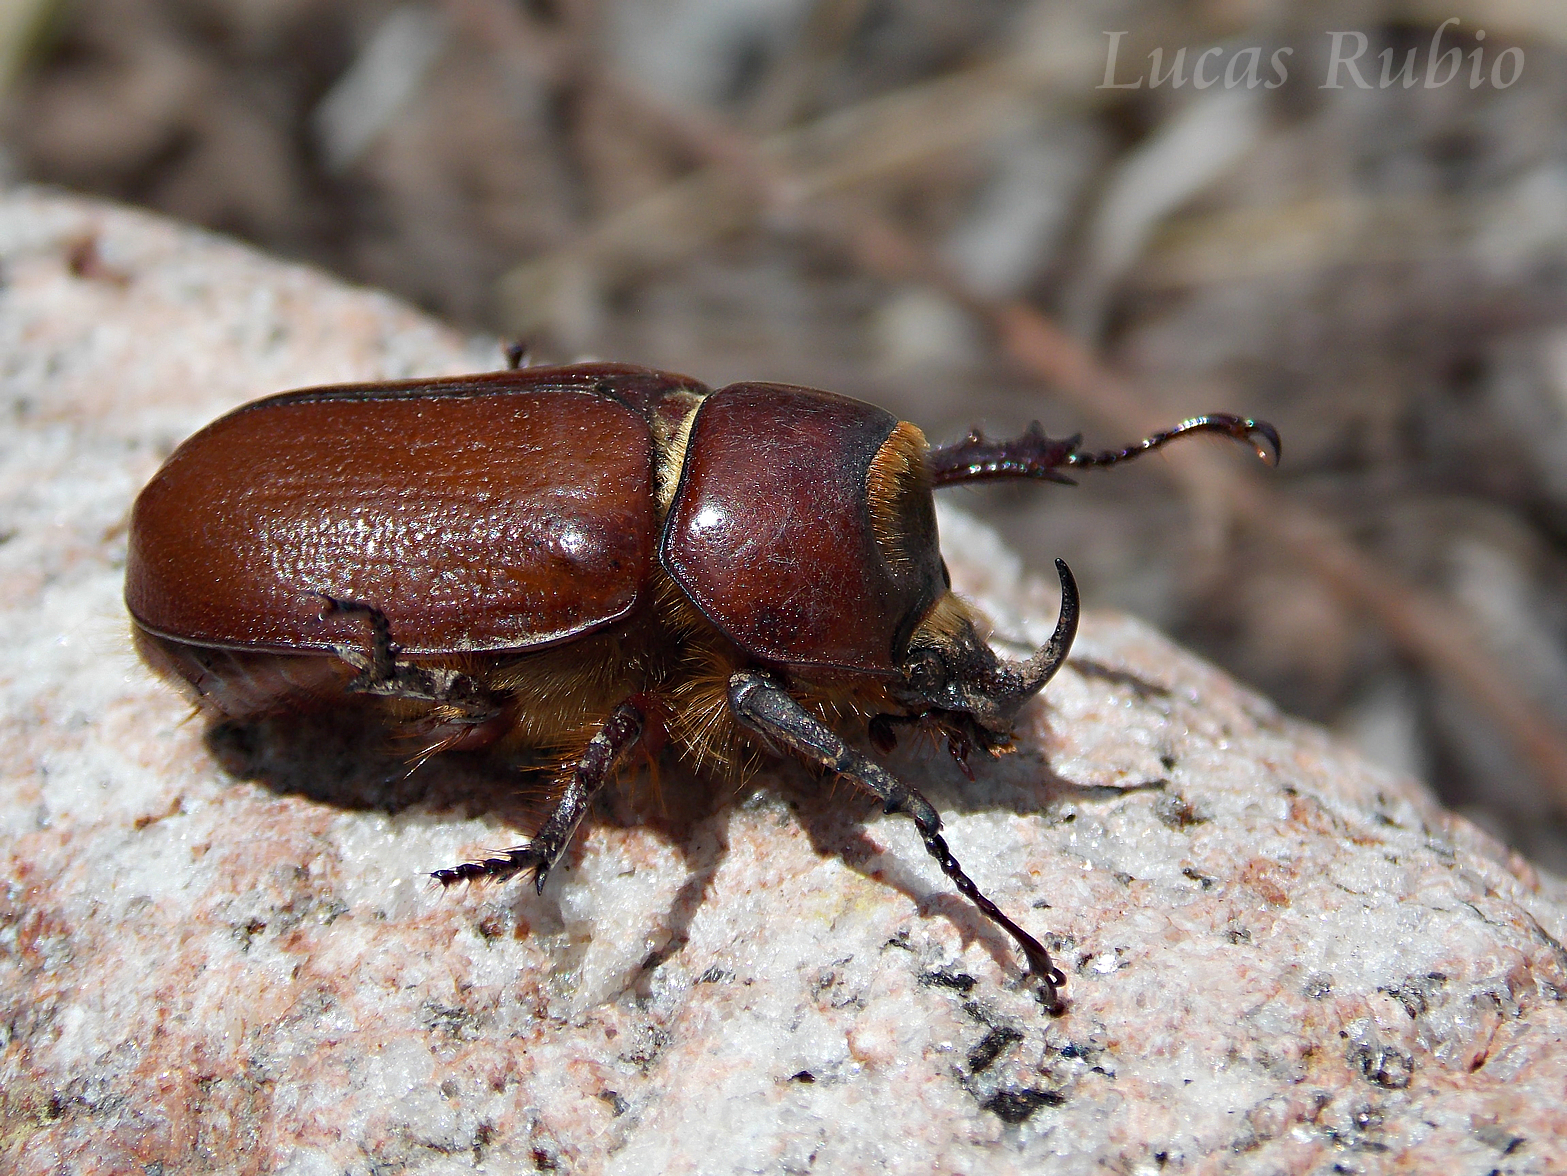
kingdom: Animalia
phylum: Arthropoda
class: Insecta
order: Coleoptera
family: Scarabaeidae
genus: Golofa
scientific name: Golofa argentina
